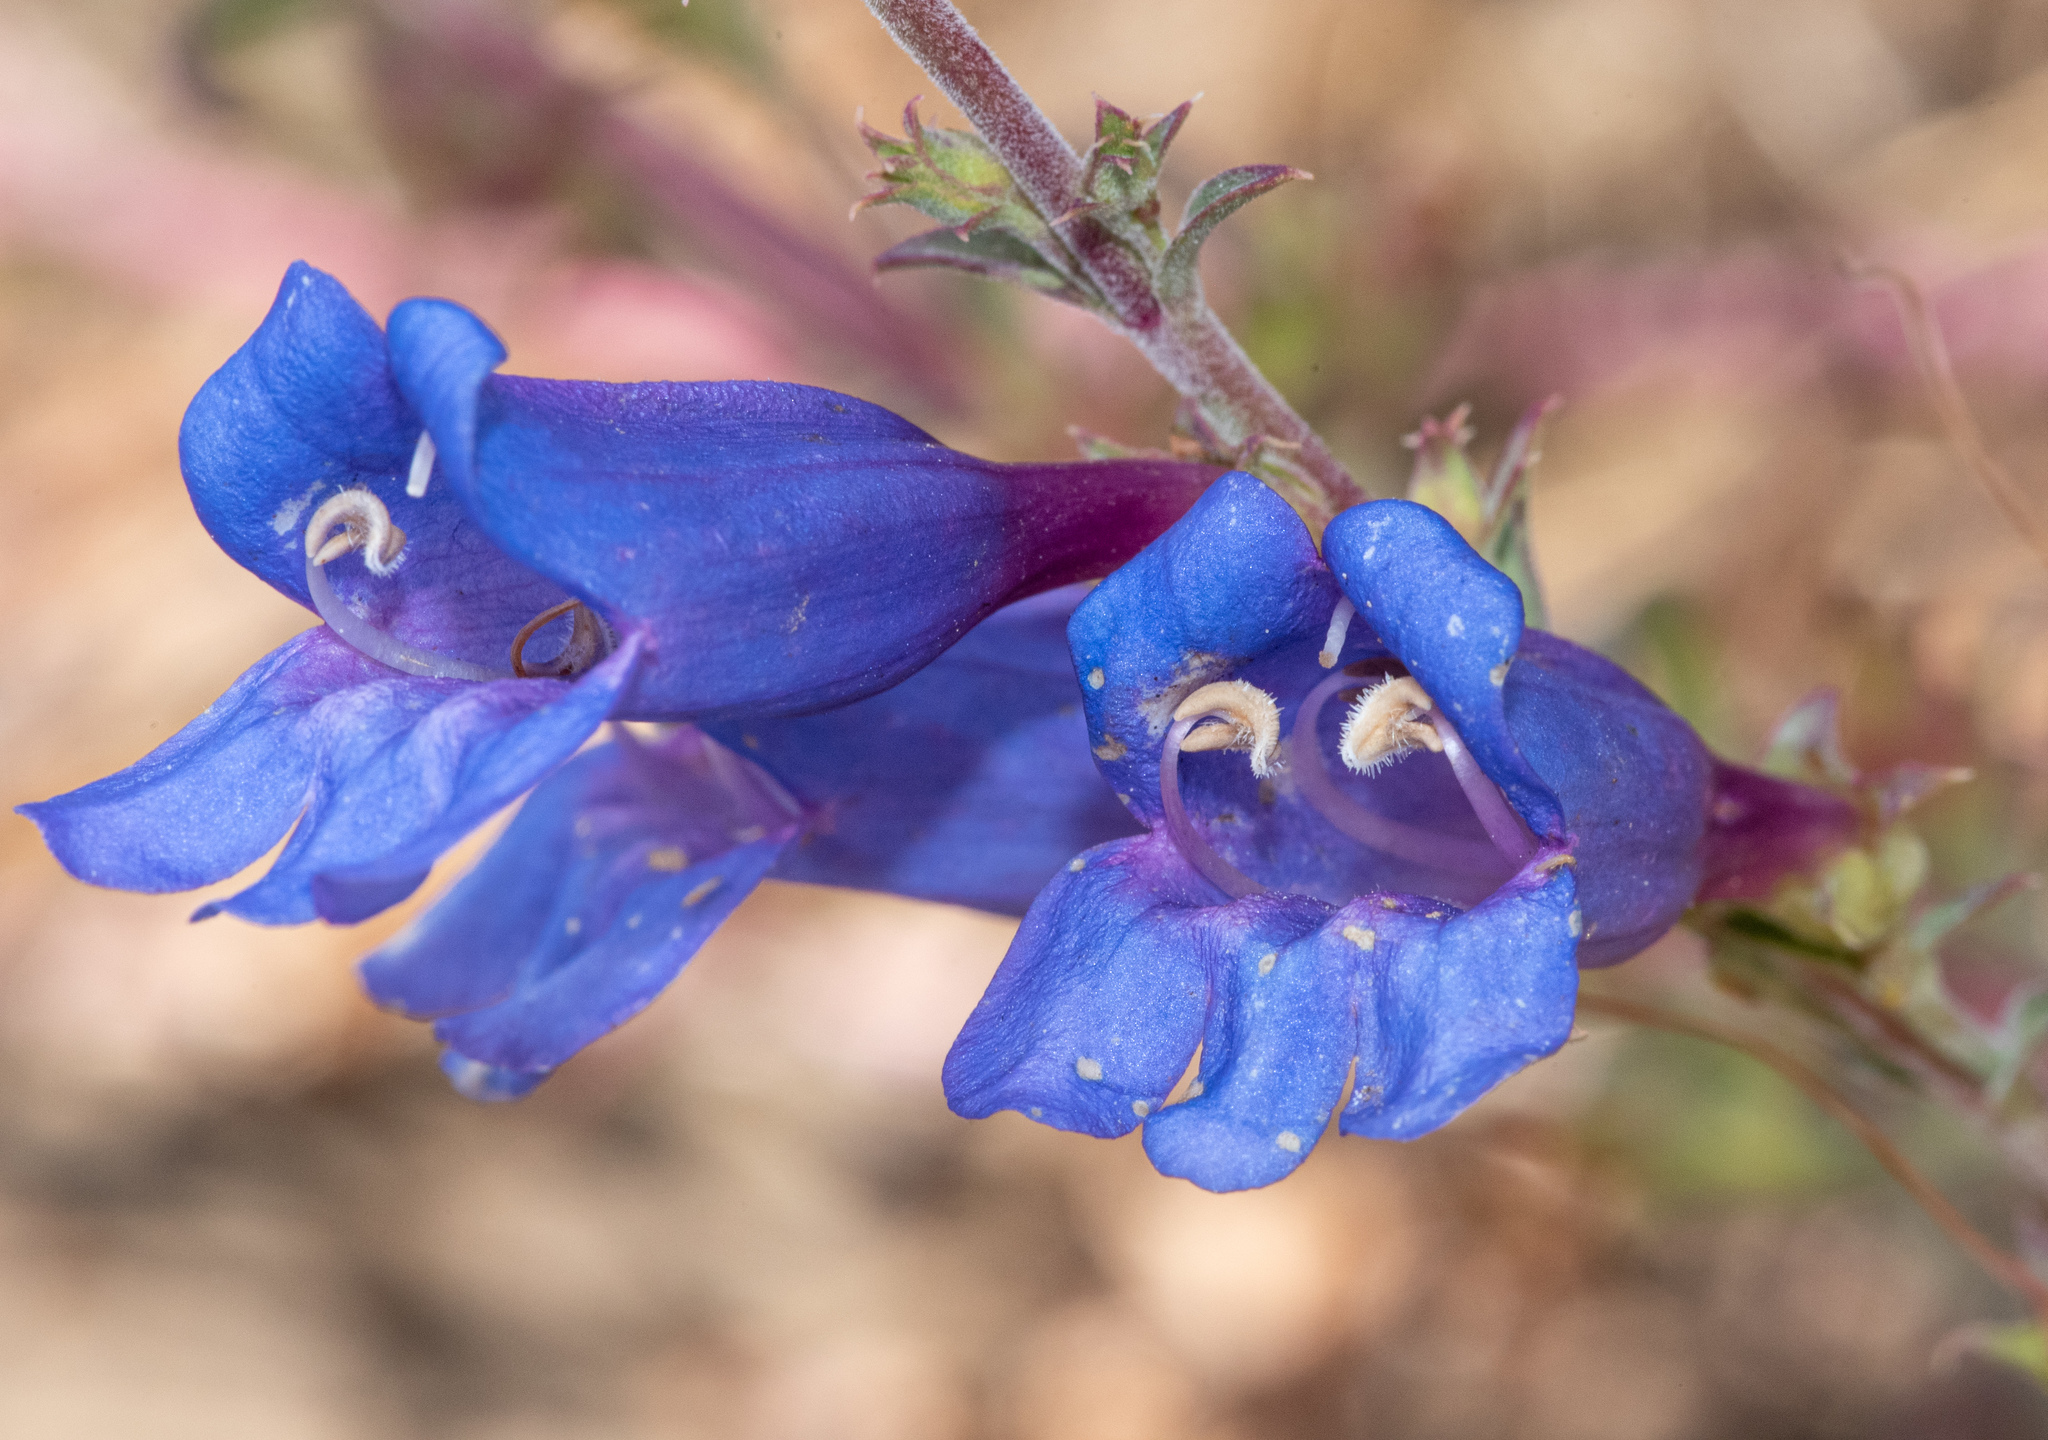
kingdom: Plantae
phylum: Tracheophyta
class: Magnoliopsida
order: Lamiales
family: Plantaginaceae
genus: Penstemon
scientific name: Penstemon heterophyllus
